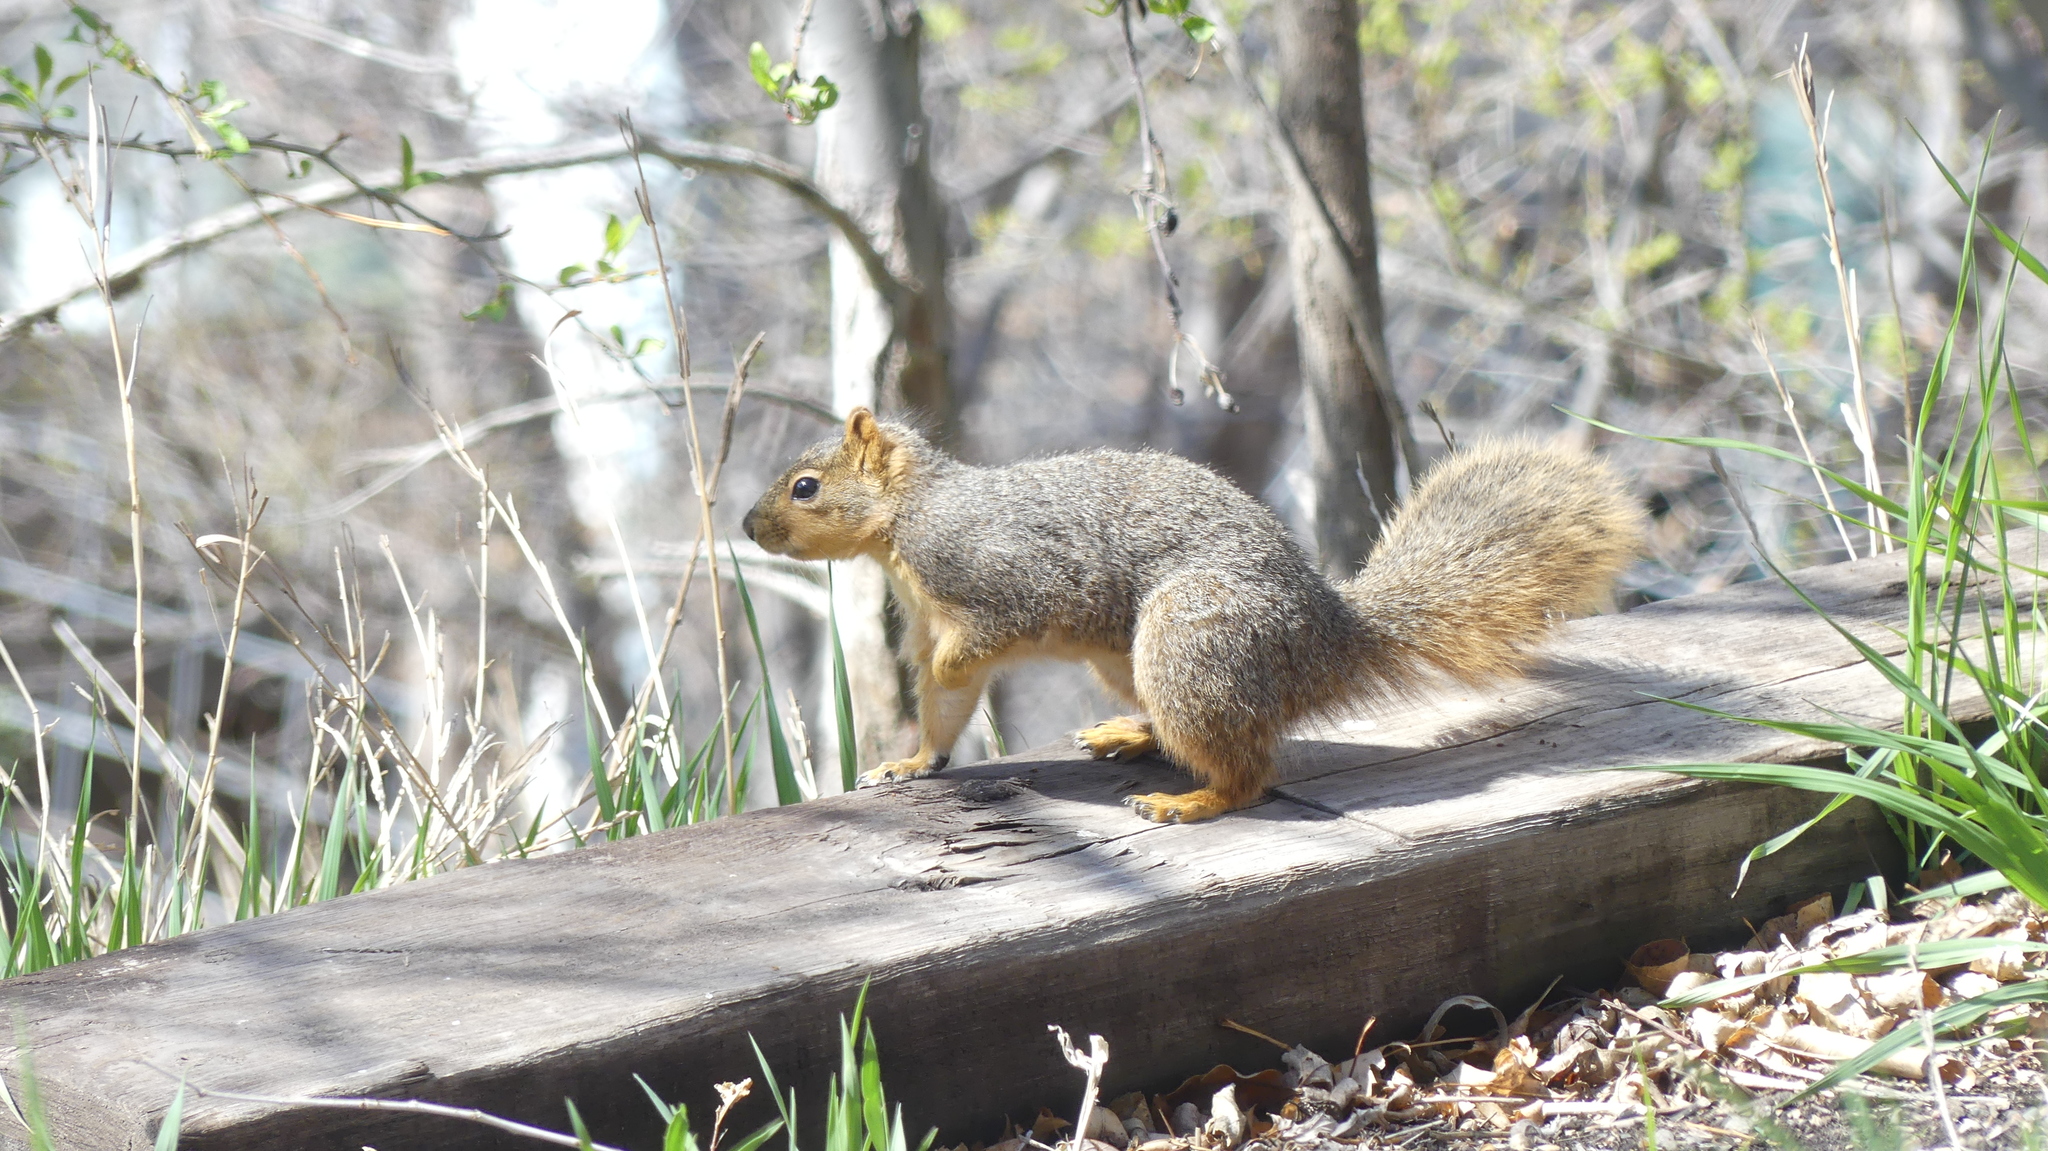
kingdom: Animalia
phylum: Chordata
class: Mammalia
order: Rodentia
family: Sciuridae
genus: Sciurus
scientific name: Sciurus niger
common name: Fox squirrel
